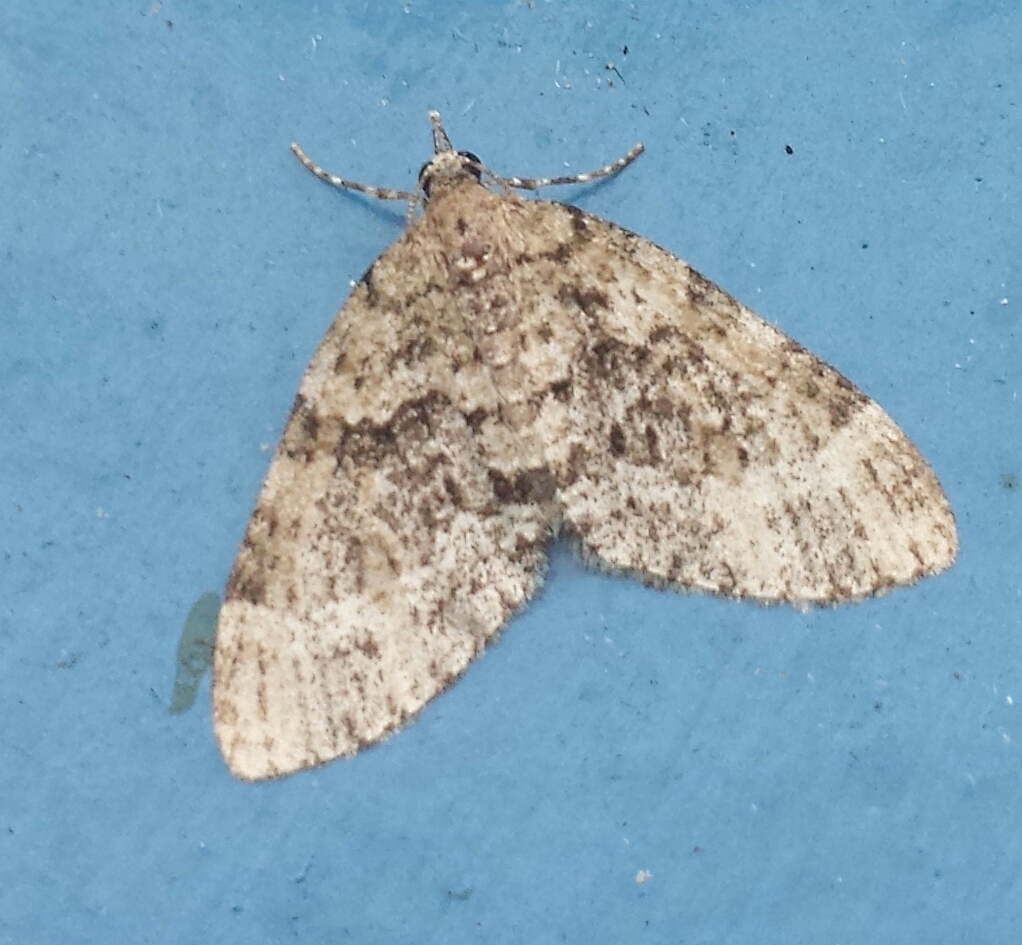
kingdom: Animalia
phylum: Arthropoda
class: Insecta
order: Lepidoptera
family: Geometridae
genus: Acasis
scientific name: Acasis viridata
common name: Olive-and-black carpet moth
